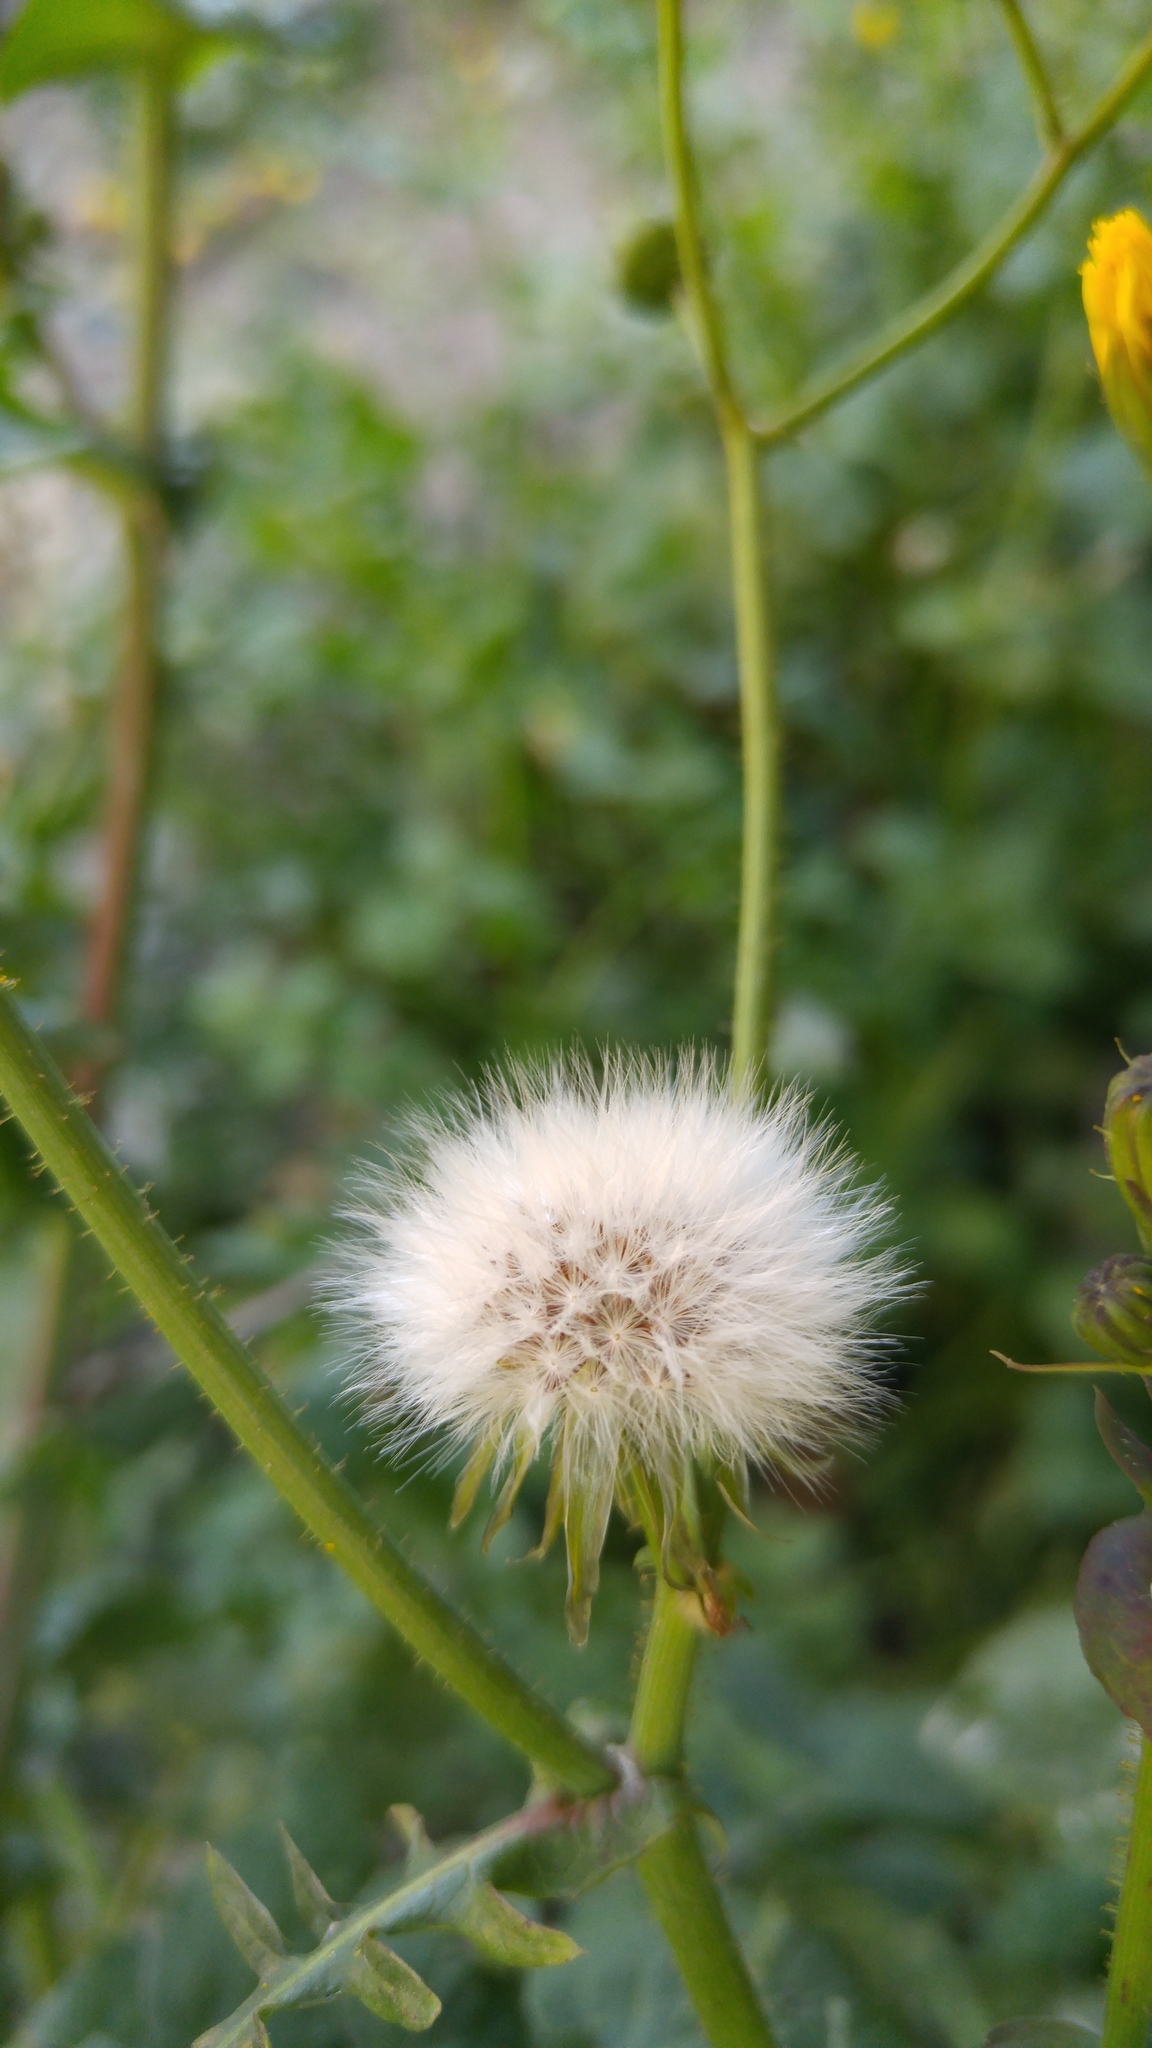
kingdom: Plantae
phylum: Tracheophyta
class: Magnoliopsida
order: Asterales
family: Asteraceae
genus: Sonchus
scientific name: Sonchus tenerrimus
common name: Clammy sowthistle
